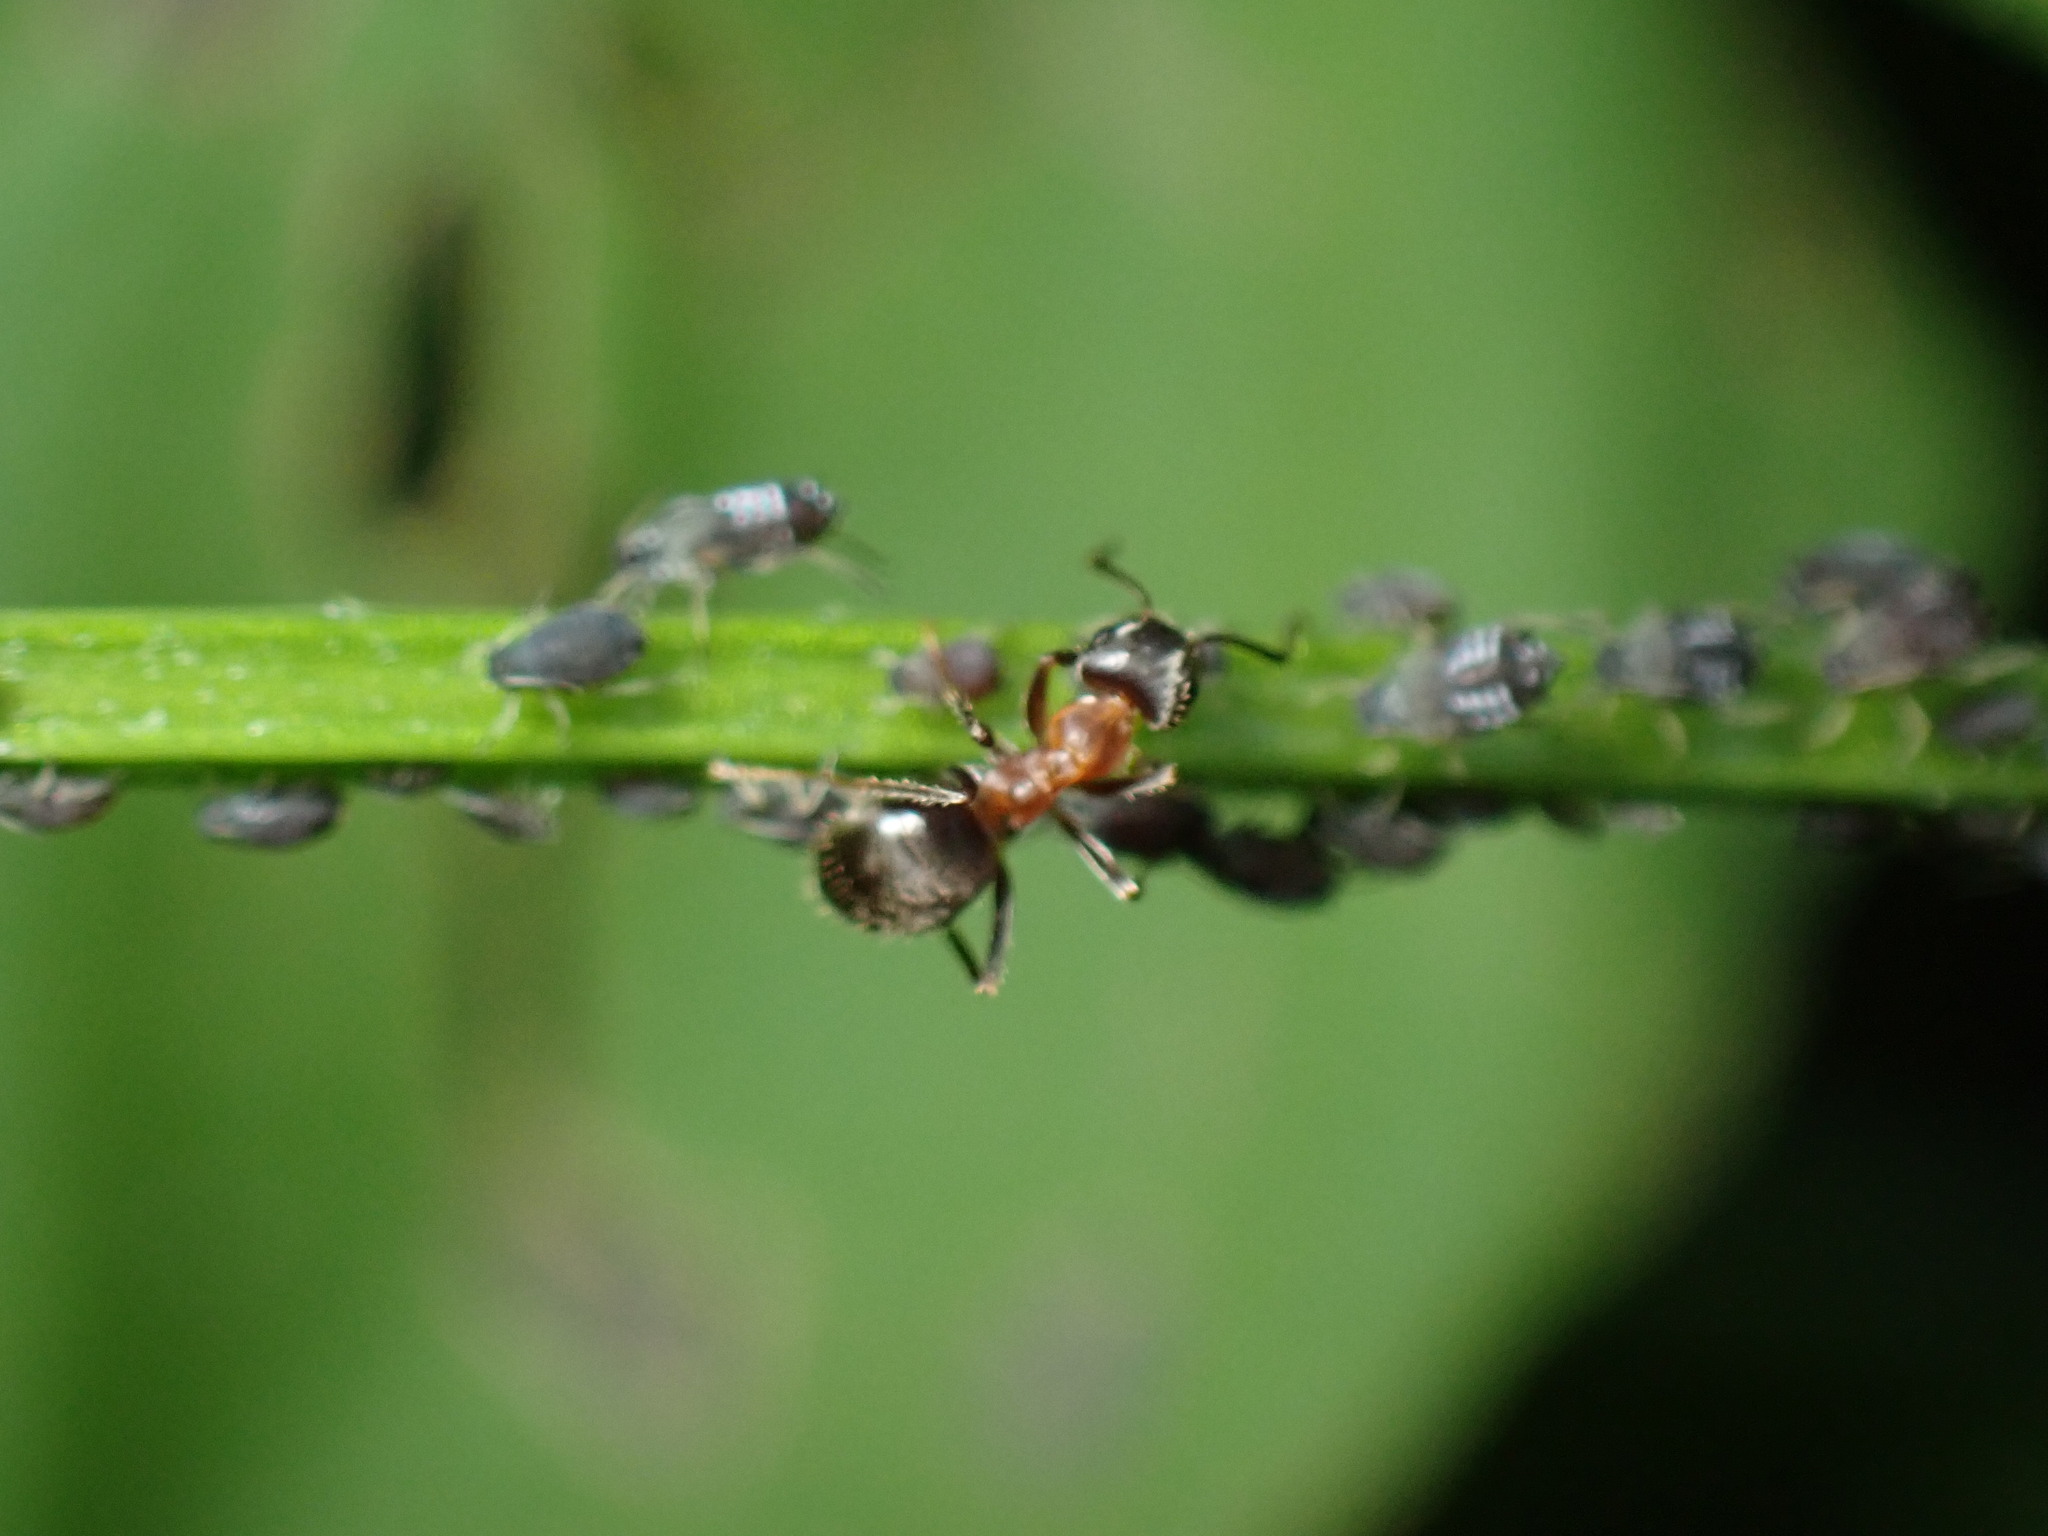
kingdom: Animalia
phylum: Arthropoda
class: Insecta
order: Hymenoptera
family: Formicidae
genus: Lasius
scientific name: Lasius emarginatus
